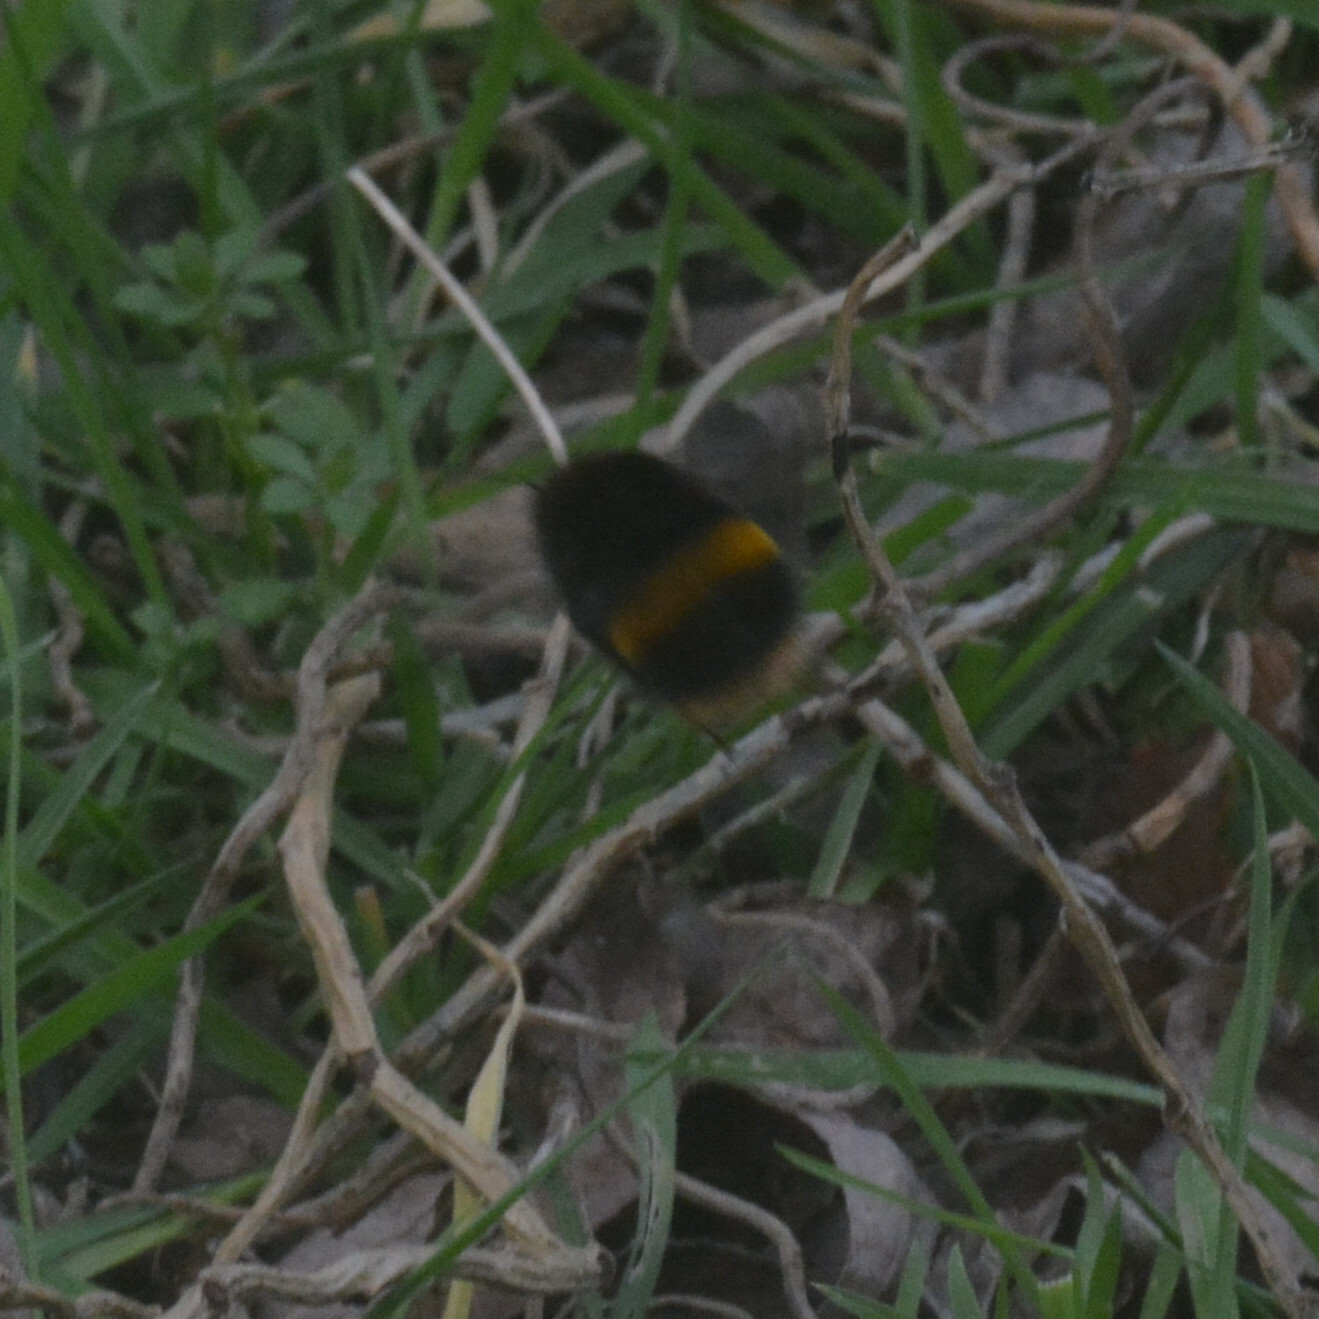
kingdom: Animalia
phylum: Arthropoda
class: Insecta
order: Hymenoptera
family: Apidae
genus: Bombus
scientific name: Bombus terrestris
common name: Buff-tailed bumblebee
